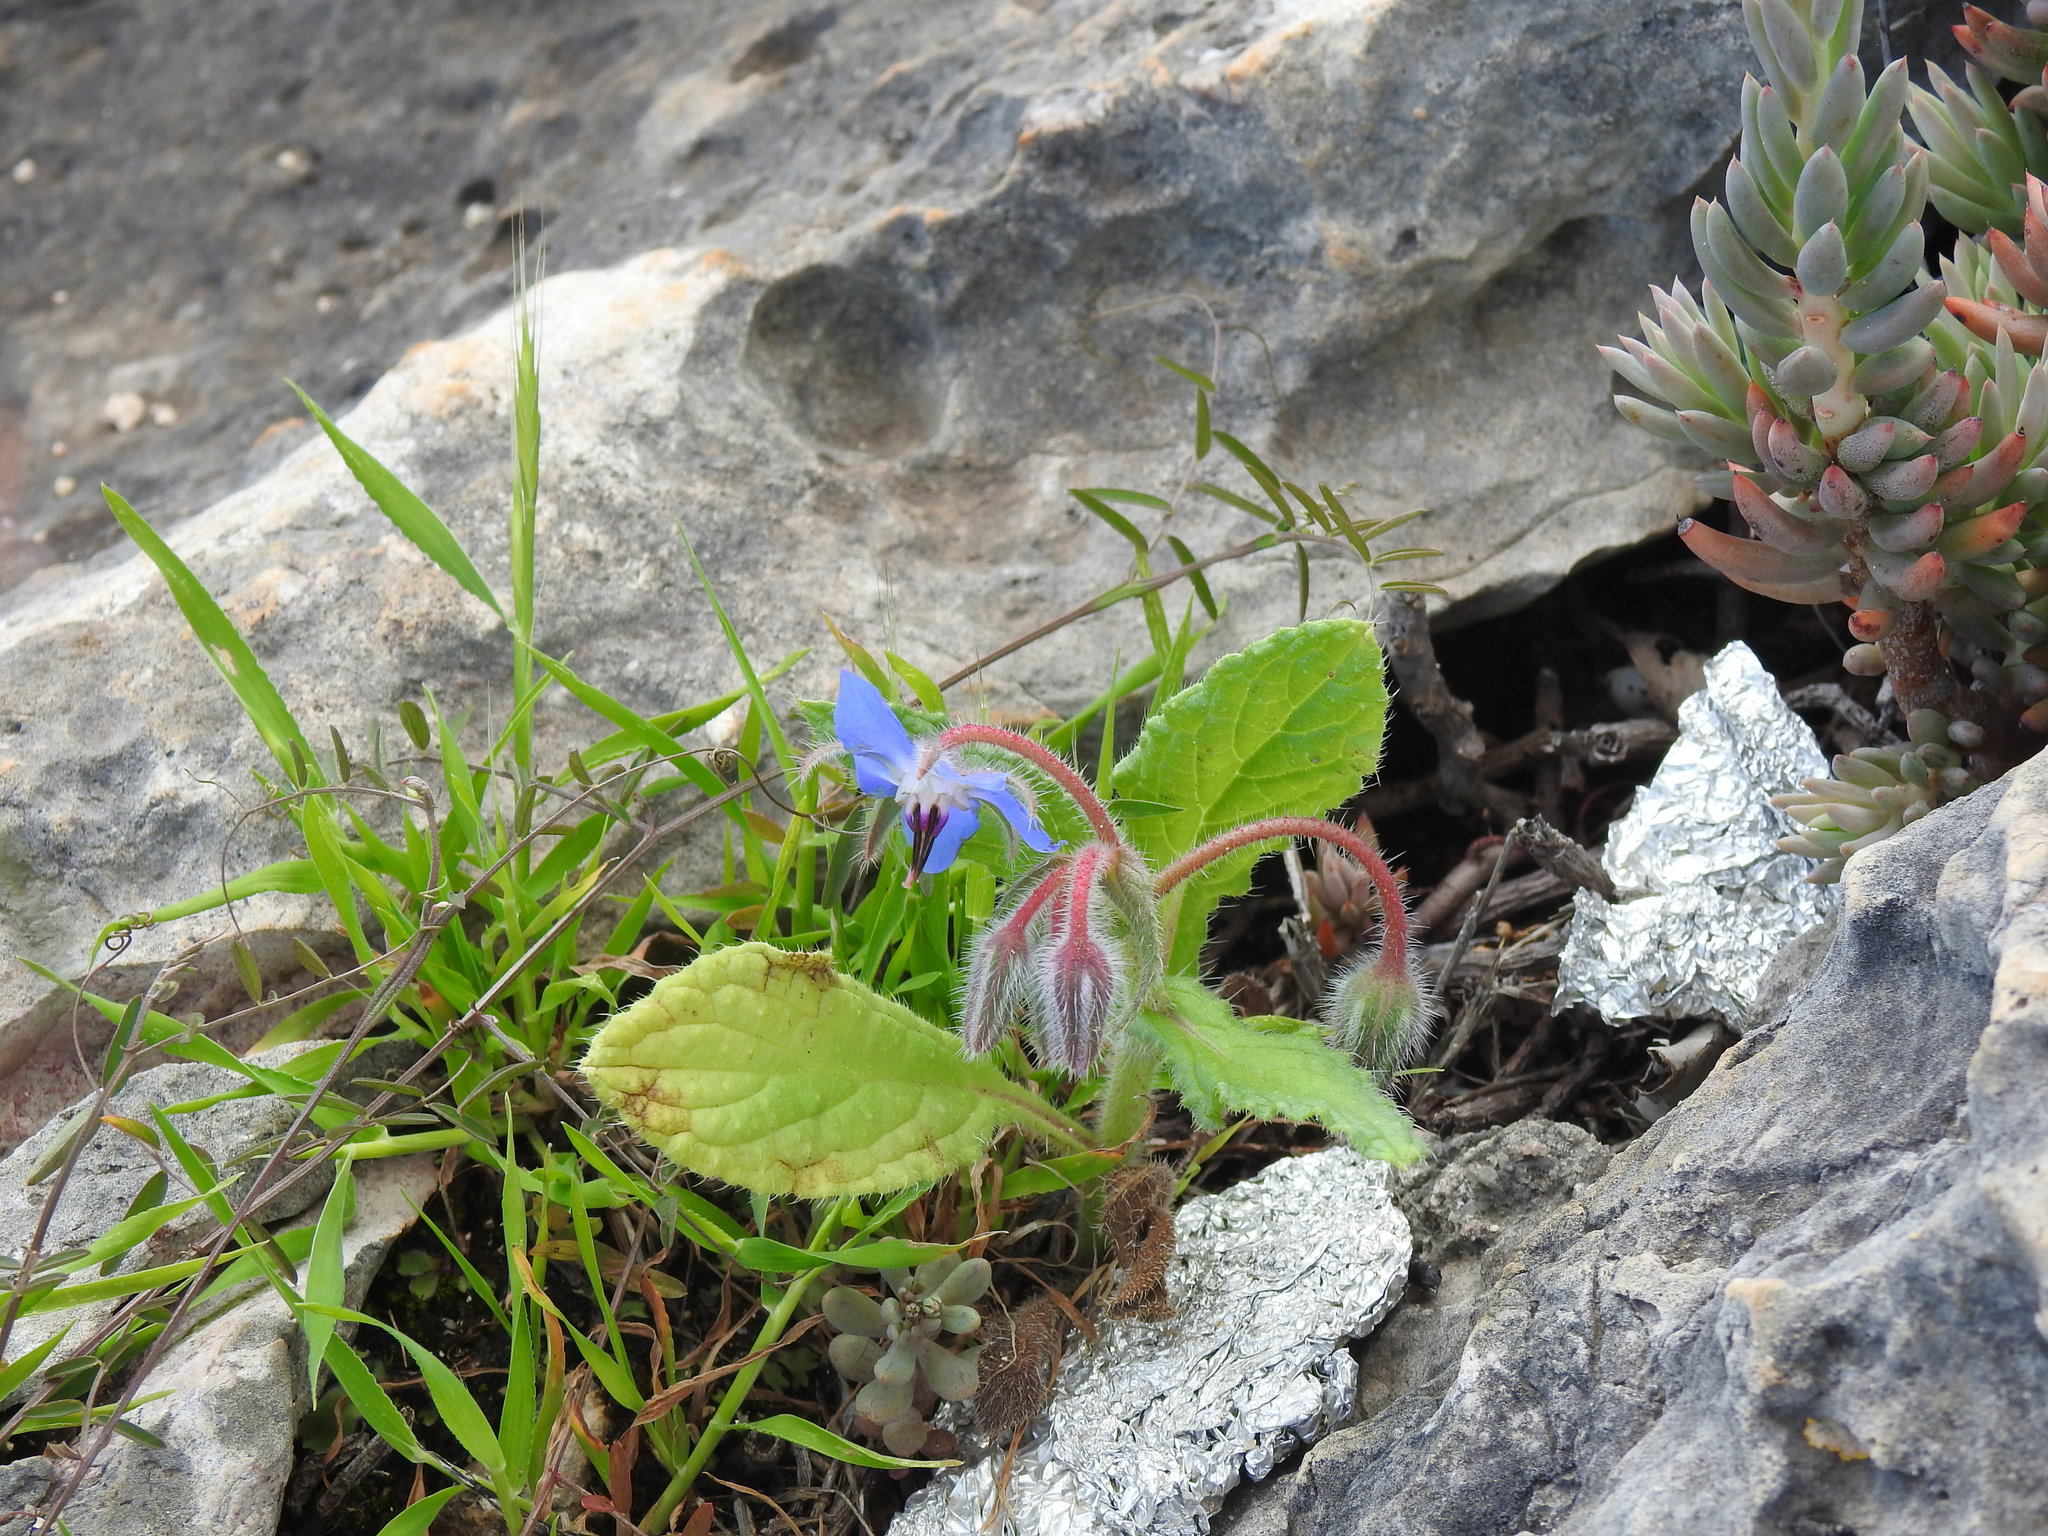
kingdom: Plantae
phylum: Tracheophyta
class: Magnoliopsida
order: Boraginales
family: Boraginaceae
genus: Borago
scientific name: Borago officinalis
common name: Borage
